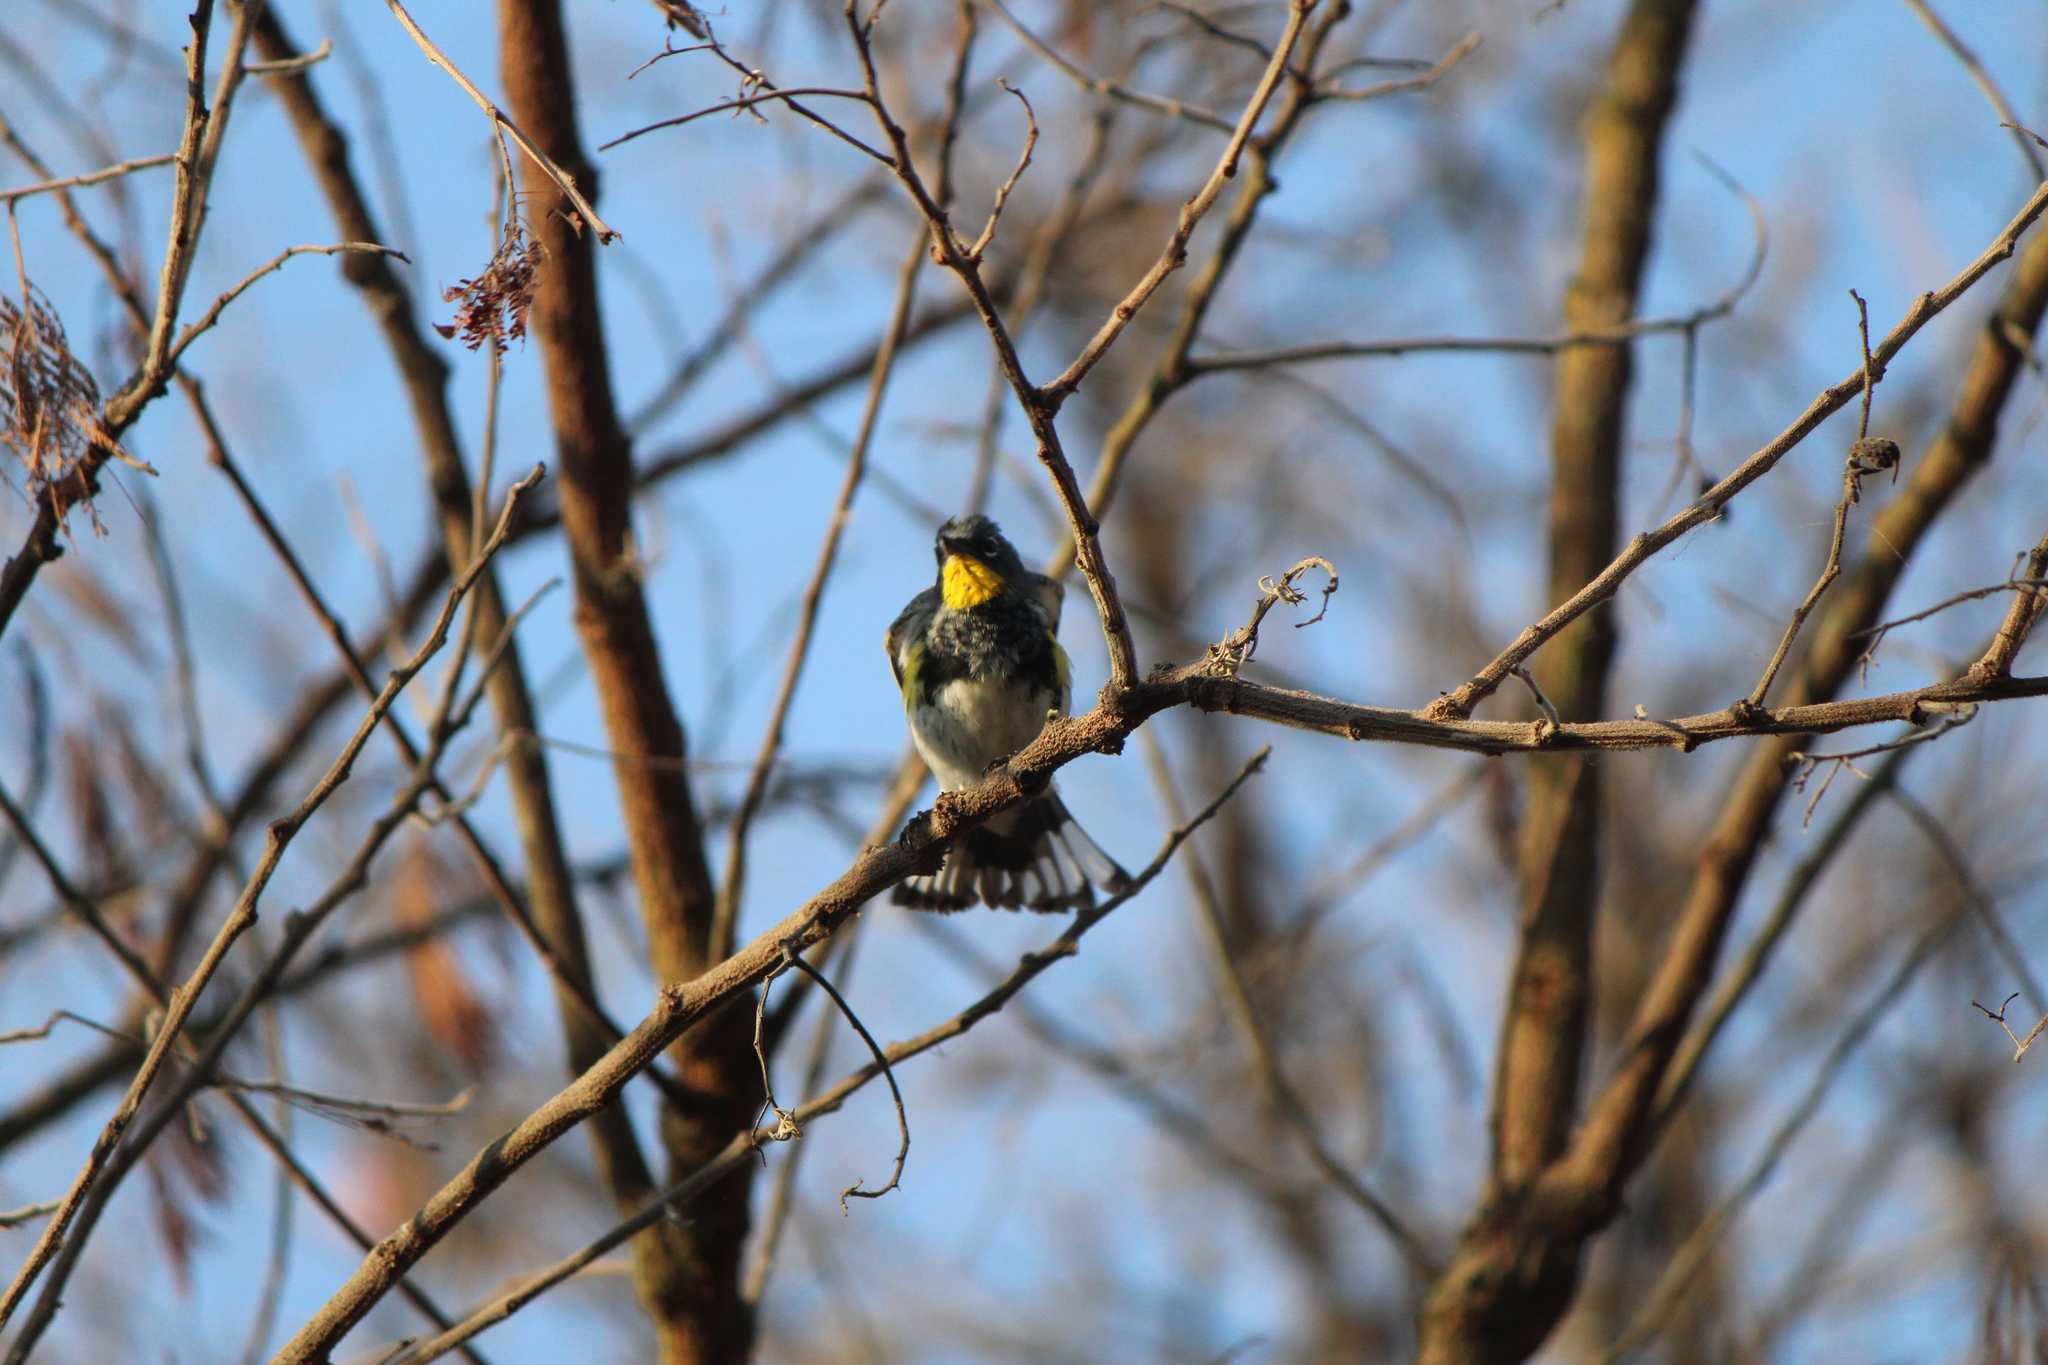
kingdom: Animalia
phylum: Chordata
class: Aves
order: Passeriformes
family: Parulidae
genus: Setophaga
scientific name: Setophaga auduboni
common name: Audubon's warbler
